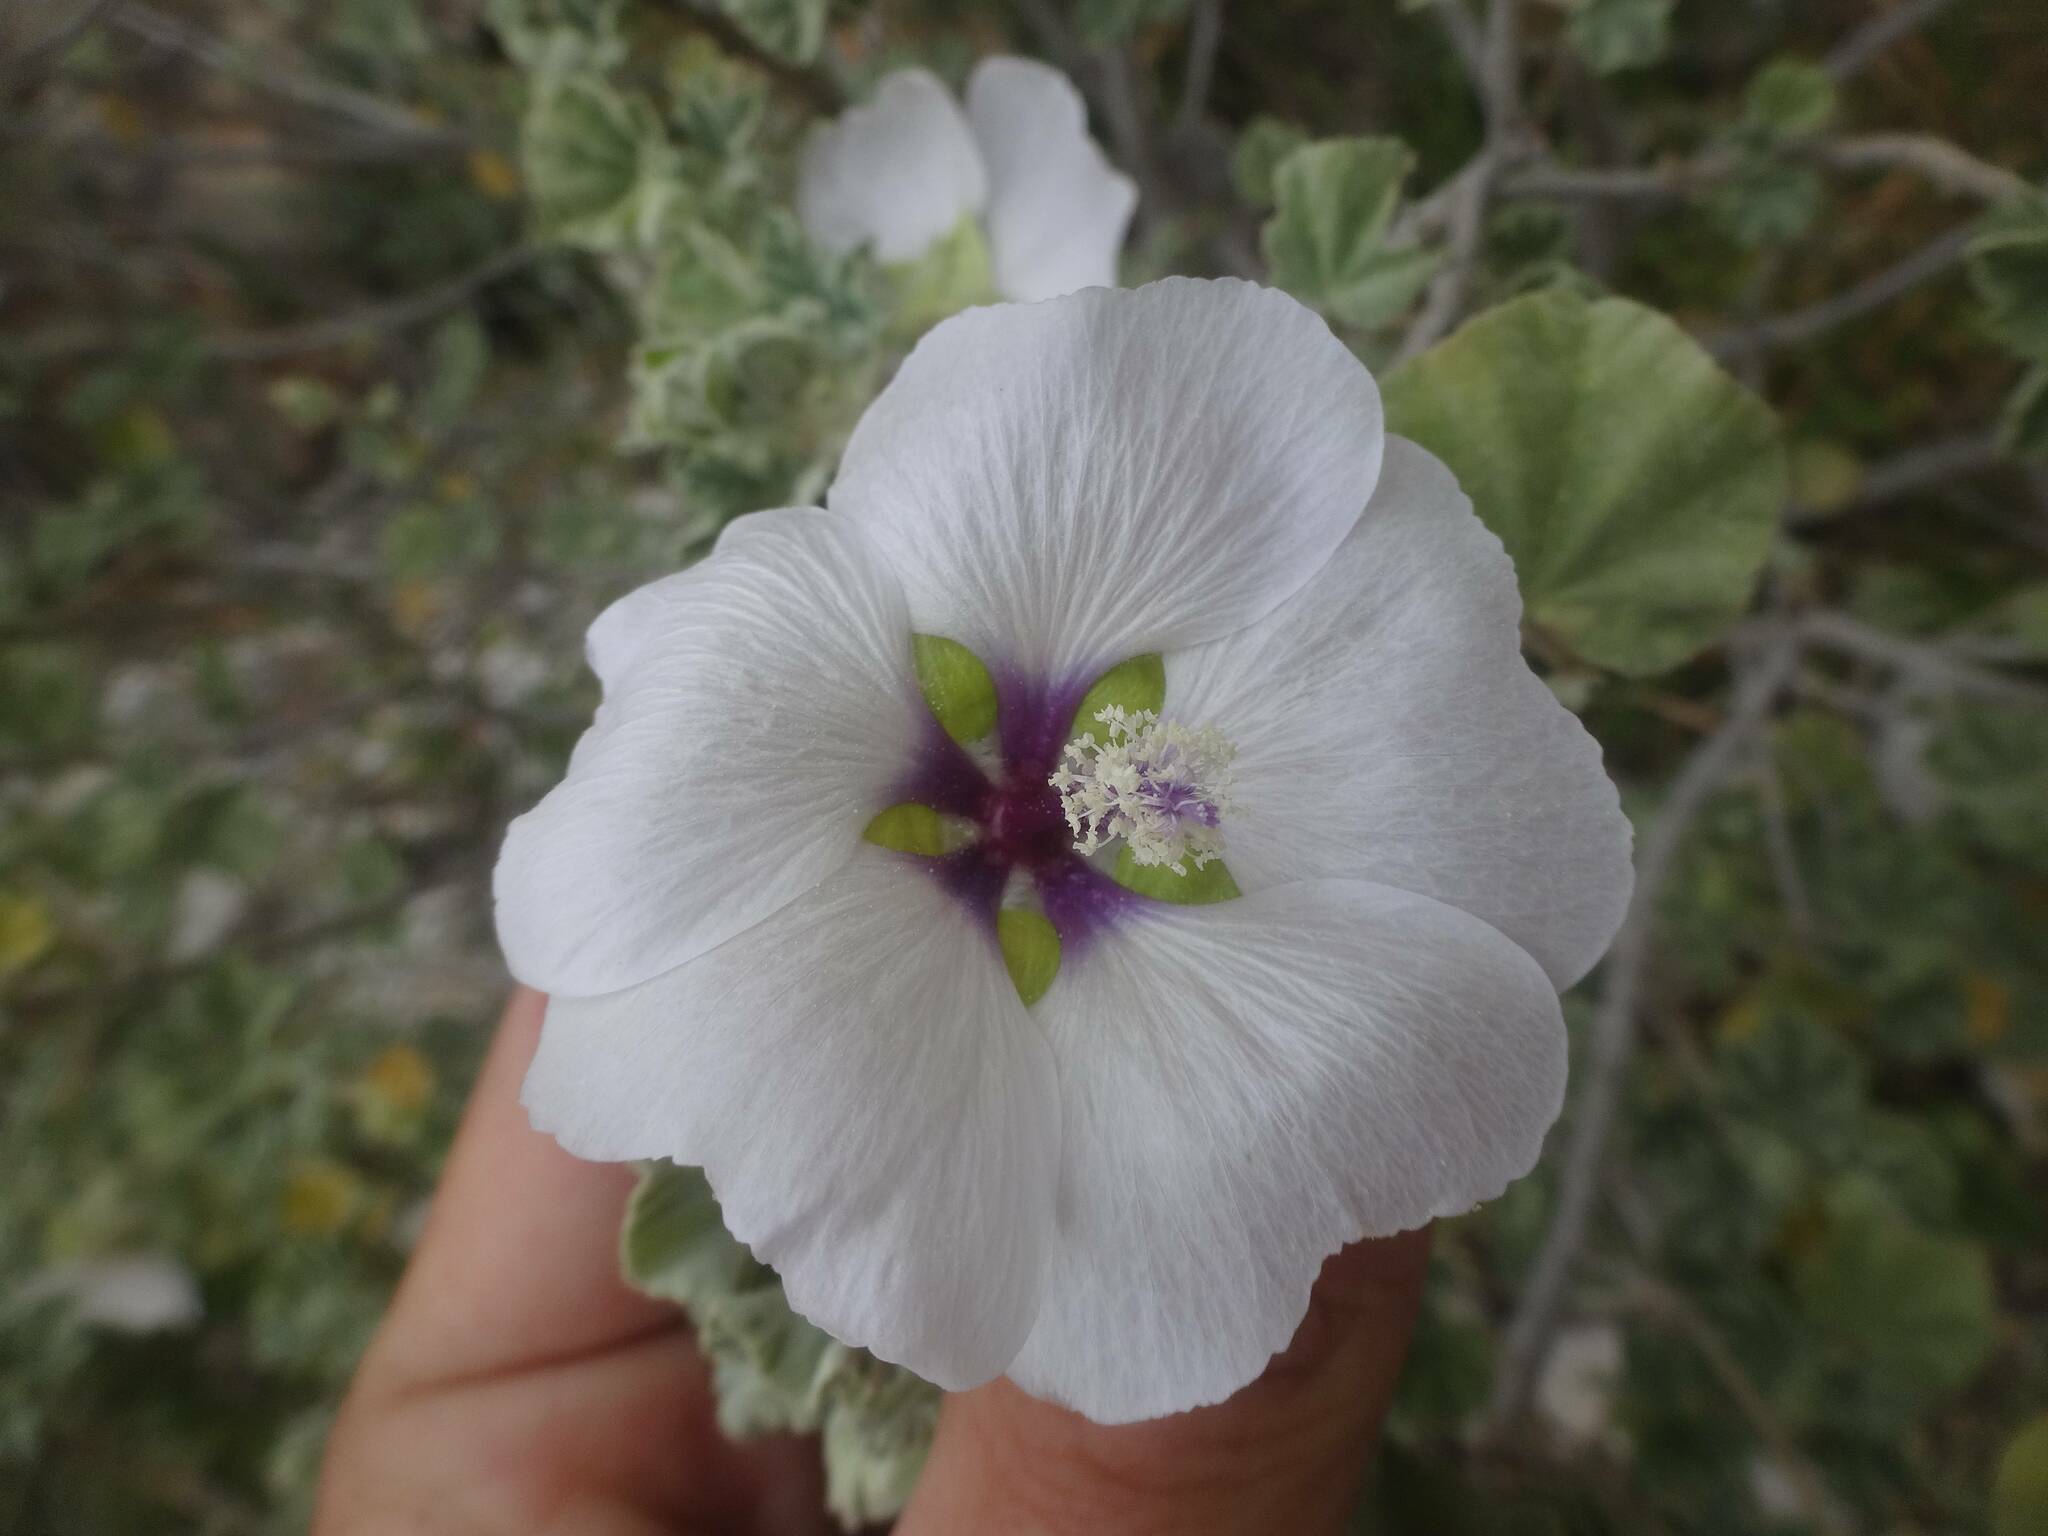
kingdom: Plantae
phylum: Tracheophyta
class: Magnoliopsida
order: Malvales
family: Malvaceae
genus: Malva
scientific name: Malva subovata
